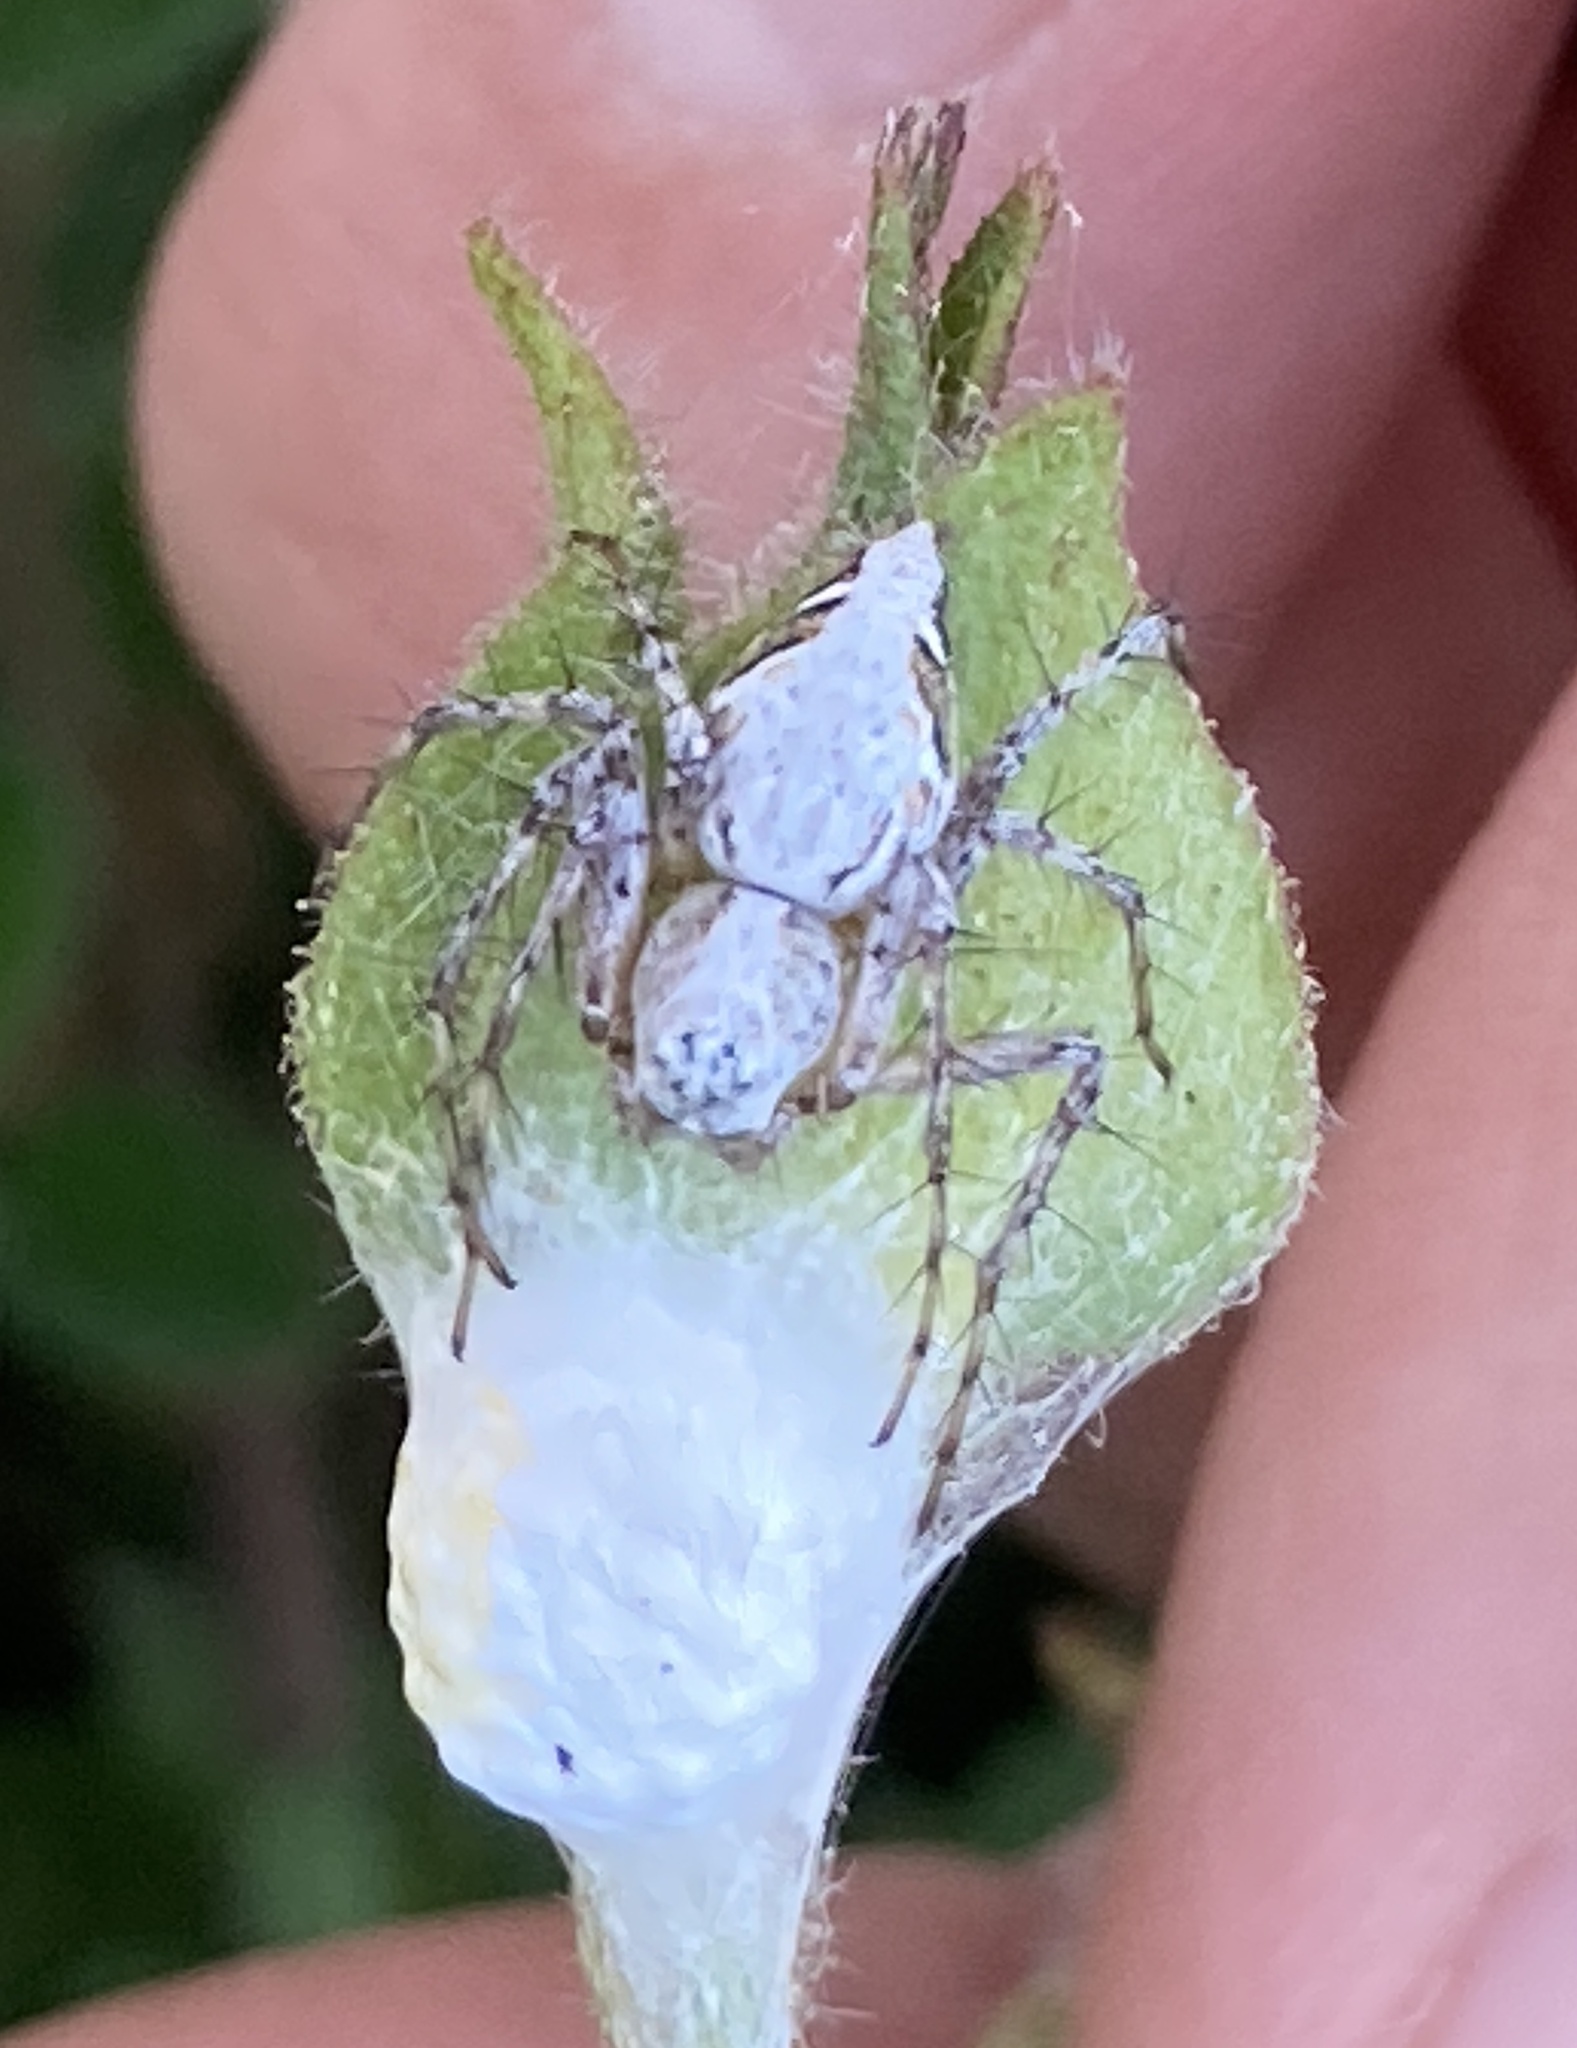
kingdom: Animalia
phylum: Arthropoda
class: Arachnida
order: Araneae
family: Oxyopidae
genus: Oxyopes
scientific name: Oxyopes scalaris
